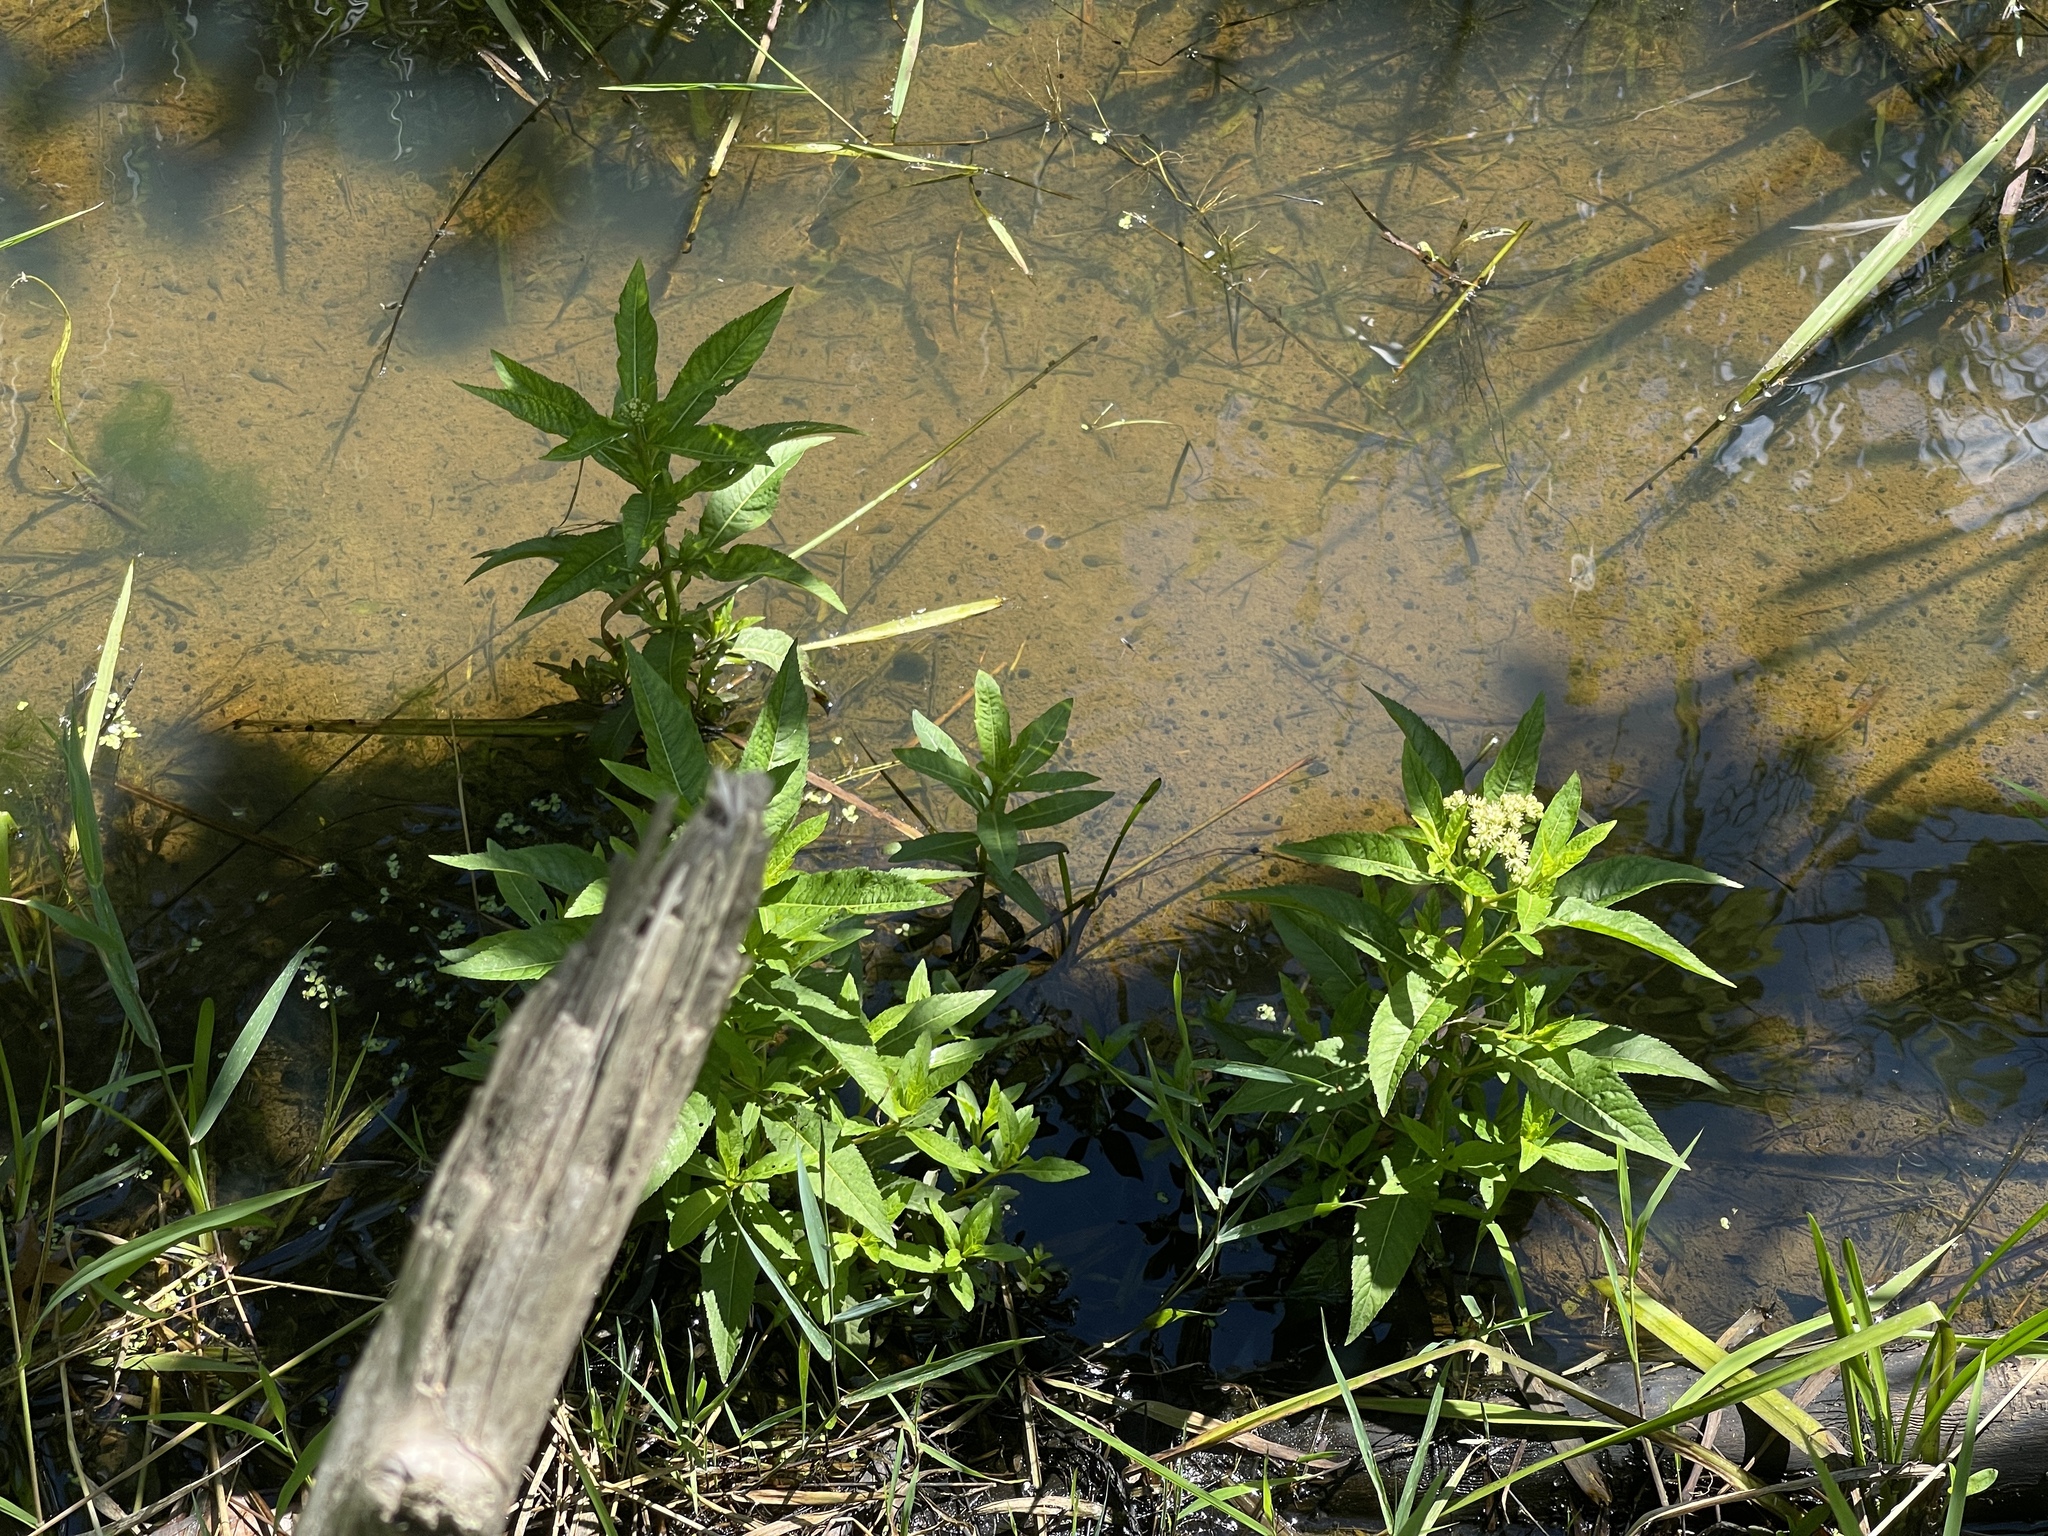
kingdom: Plantae
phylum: Tracheophyta
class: Magnoliopsida
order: Saxifragales
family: Penthoraceae
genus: Penthorum
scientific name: Penthorum sedoides
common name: Ditch stonecrop
